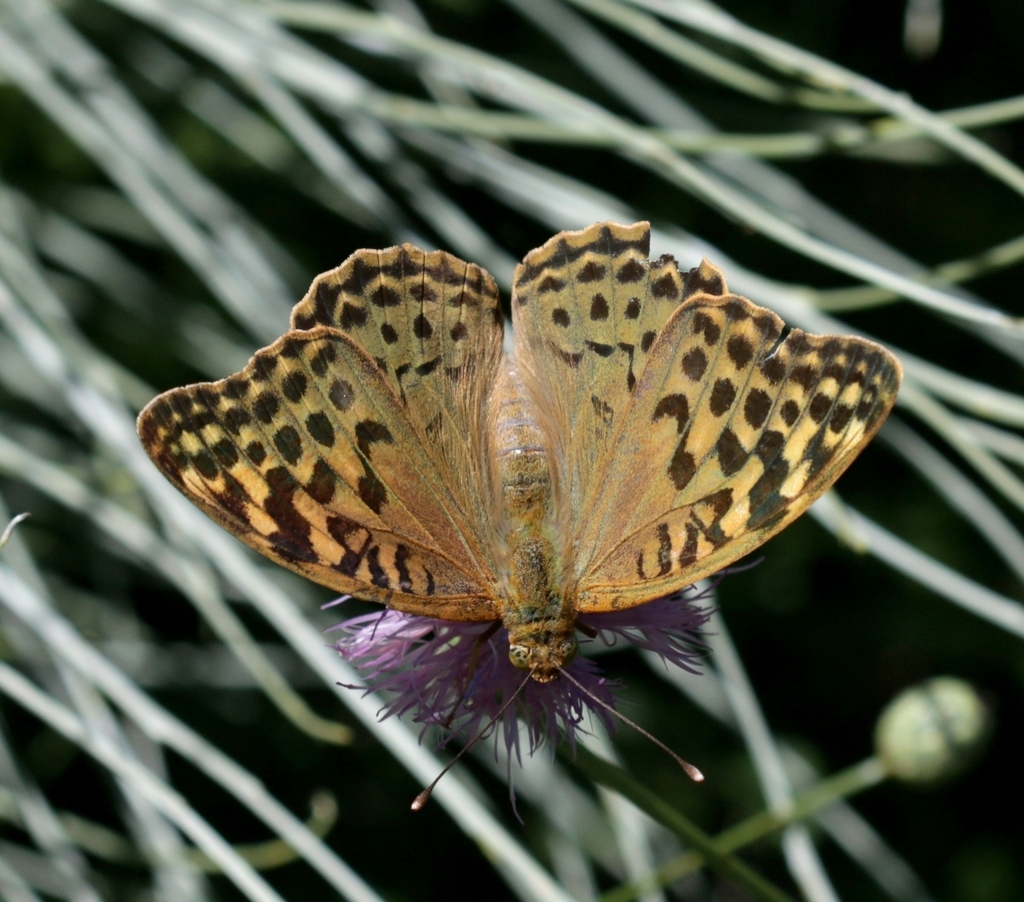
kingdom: Animalia
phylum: Arthropoda
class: Insecta
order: Lepidoptera
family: Nymphalidae
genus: Damora
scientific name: Damora pandora
